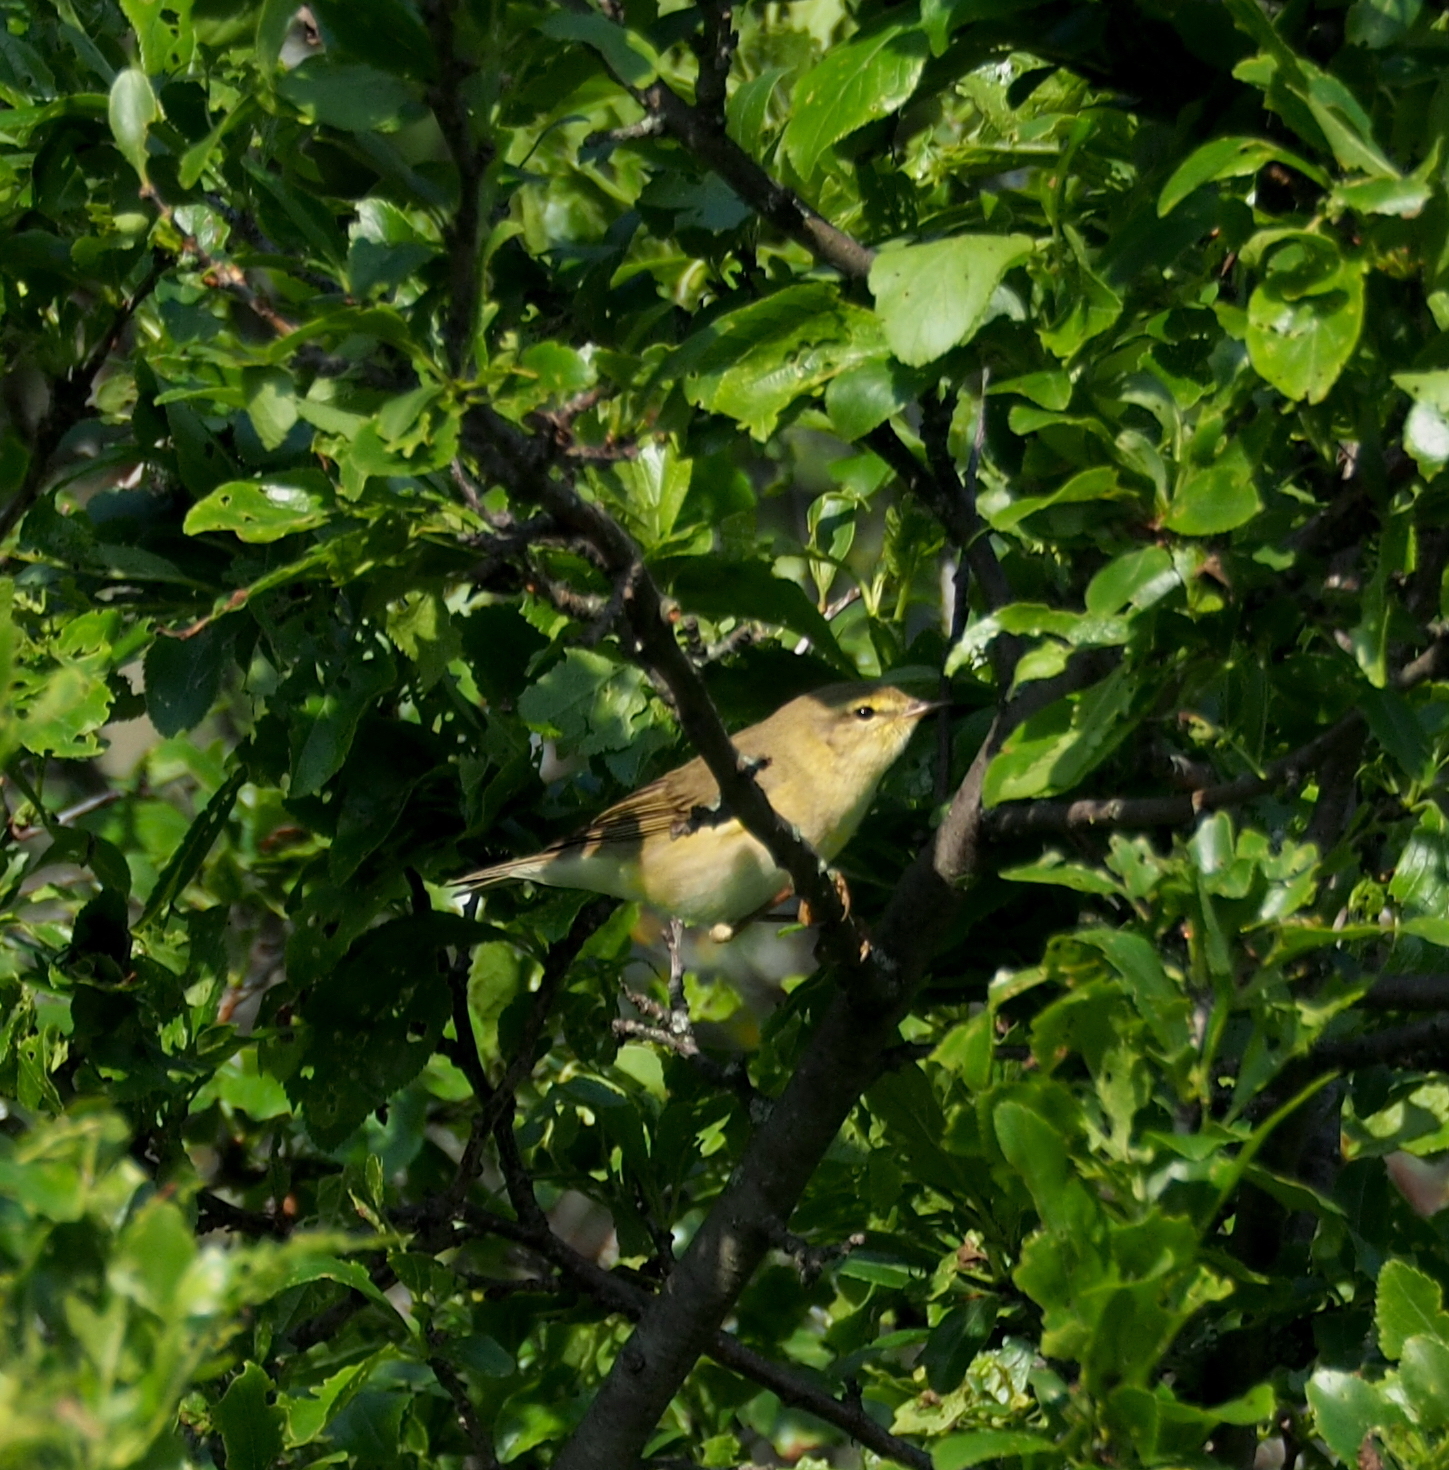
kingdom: Animalia
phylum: Chordata
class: Aves
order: Passeriformes
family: Phylloscopidae
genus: Phylloscopus
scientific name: Phylloscopus trochilus
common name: Willow warbler
